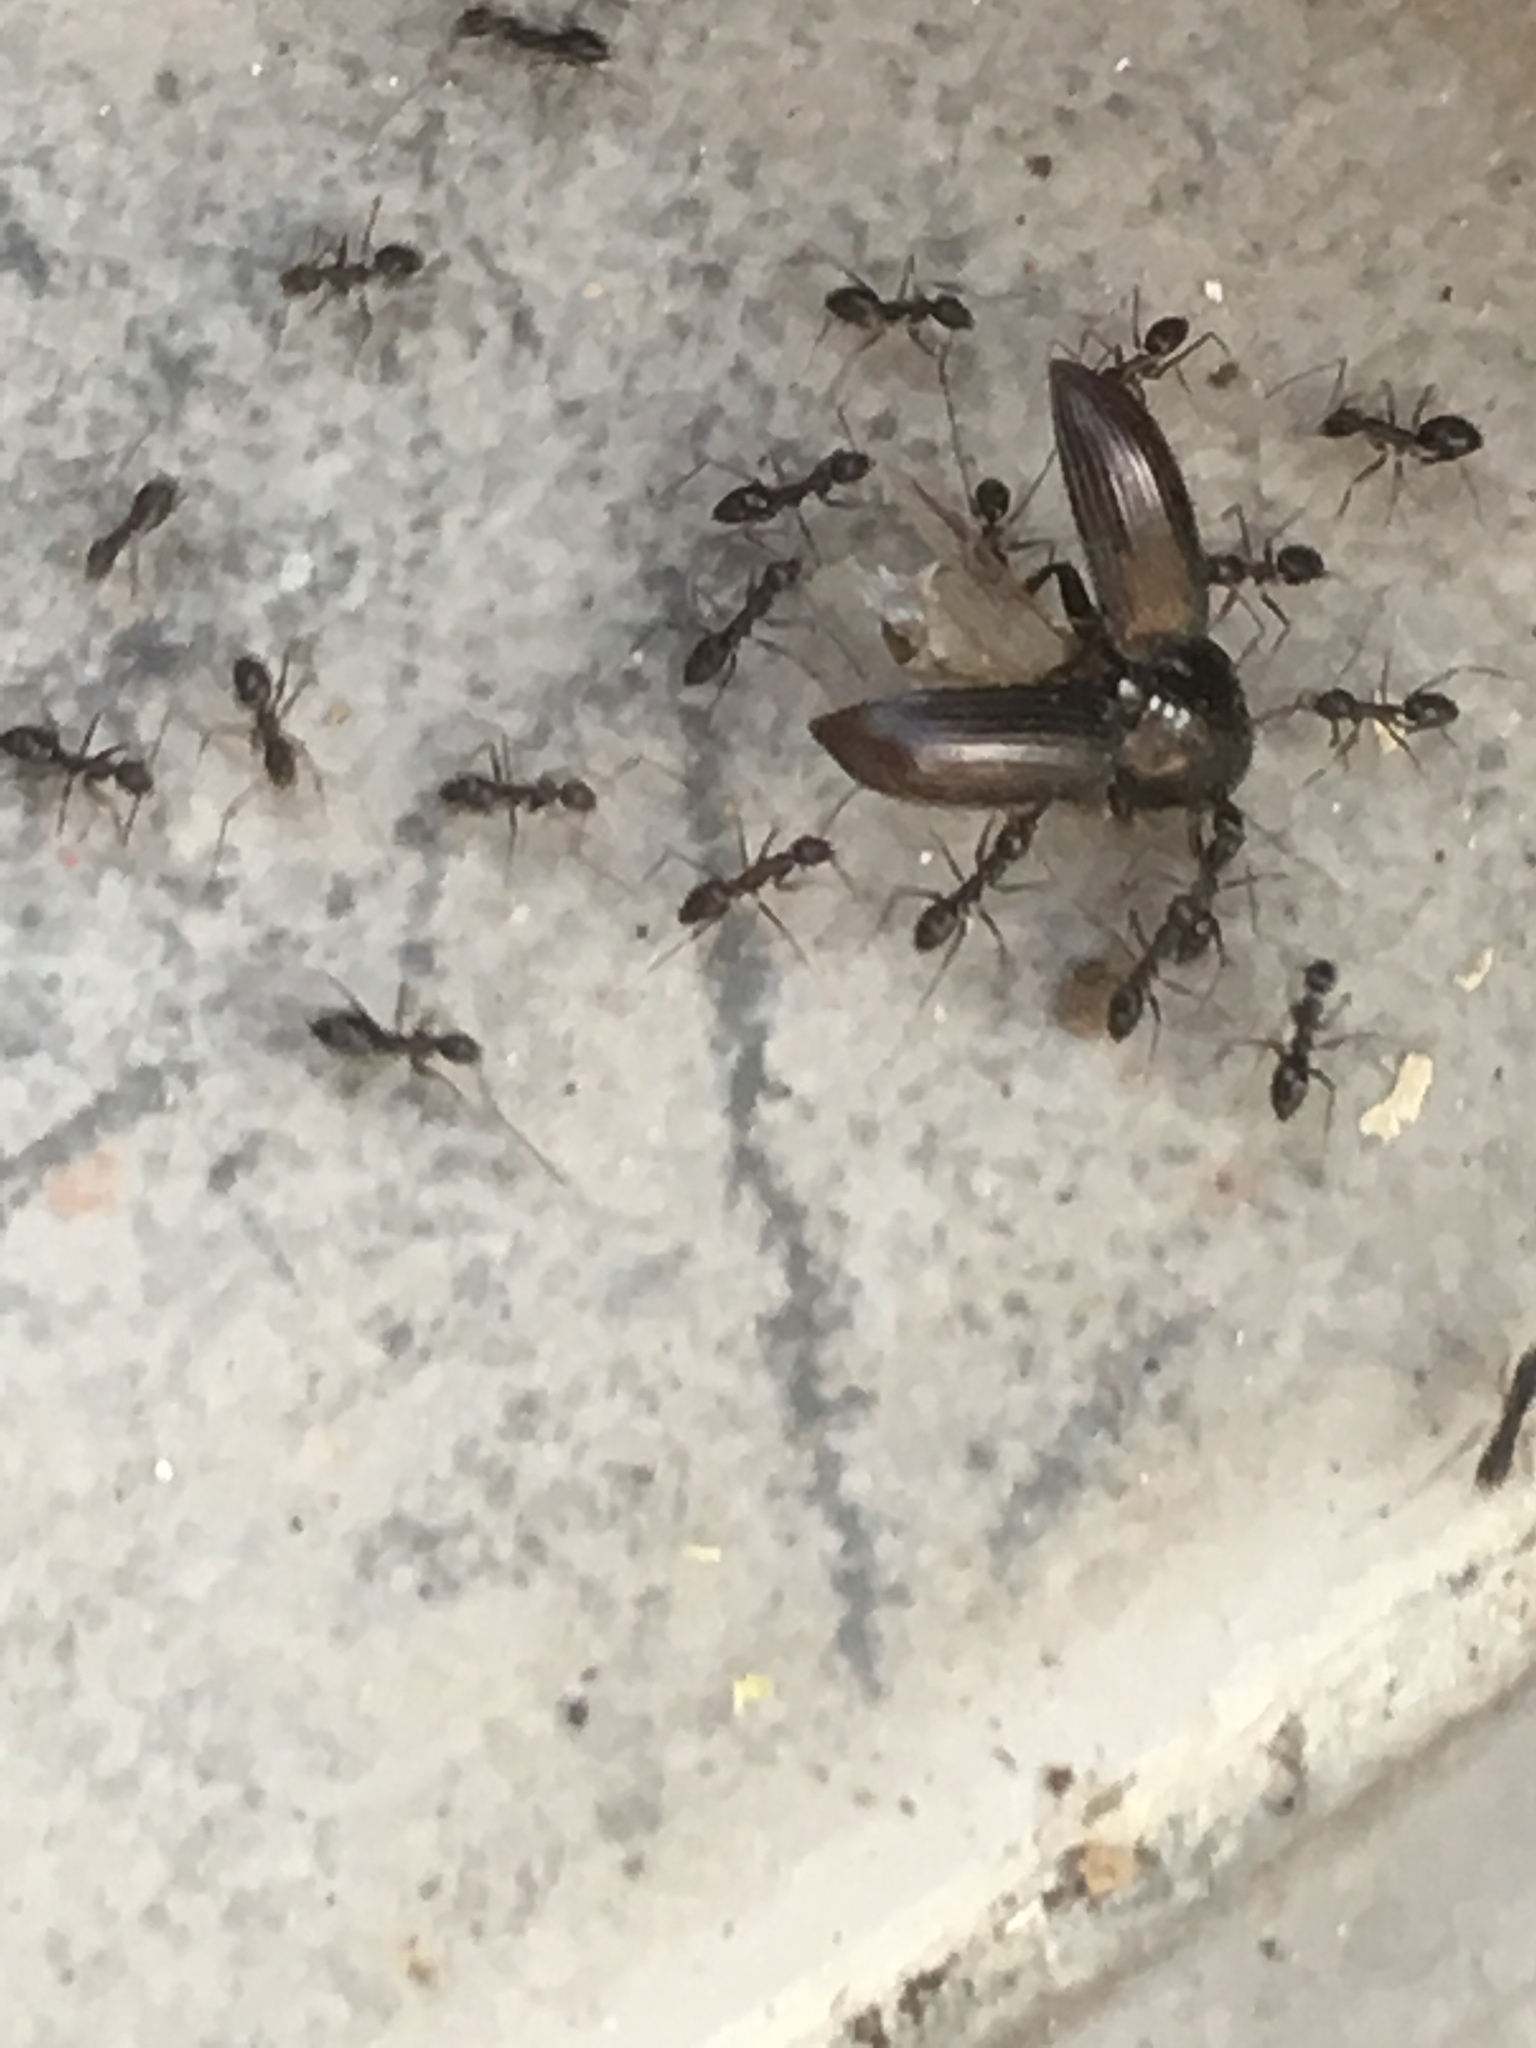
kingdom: Animalia
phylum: Arthropoda
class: Insecta
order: Hymenoptera
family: Formicidae
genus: Paratrechina
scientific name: Paratrechina longicornis
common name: Longhorned crazy ant
